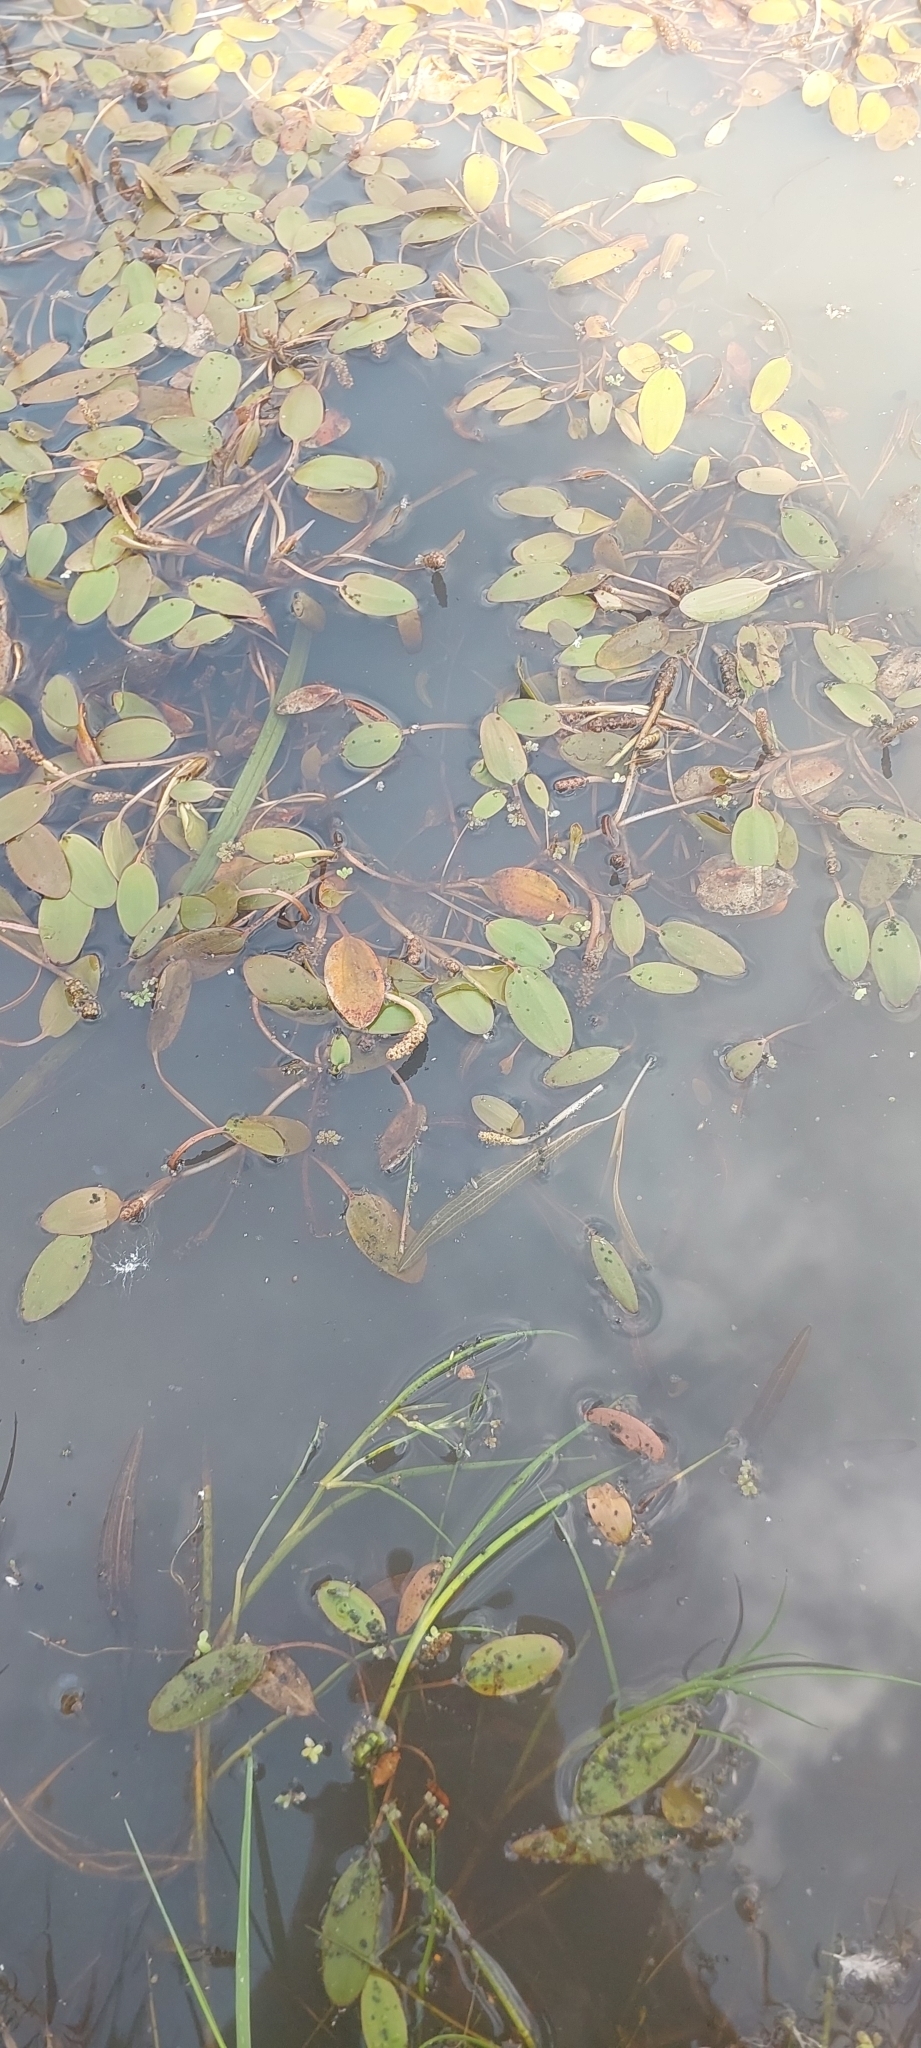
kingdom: Plantae
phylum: Tracheophyta
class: Liliopsida
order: Alismatales
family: Potamogetonaceae
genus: Potamogeton
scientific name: Potamogeton cheesemanii
